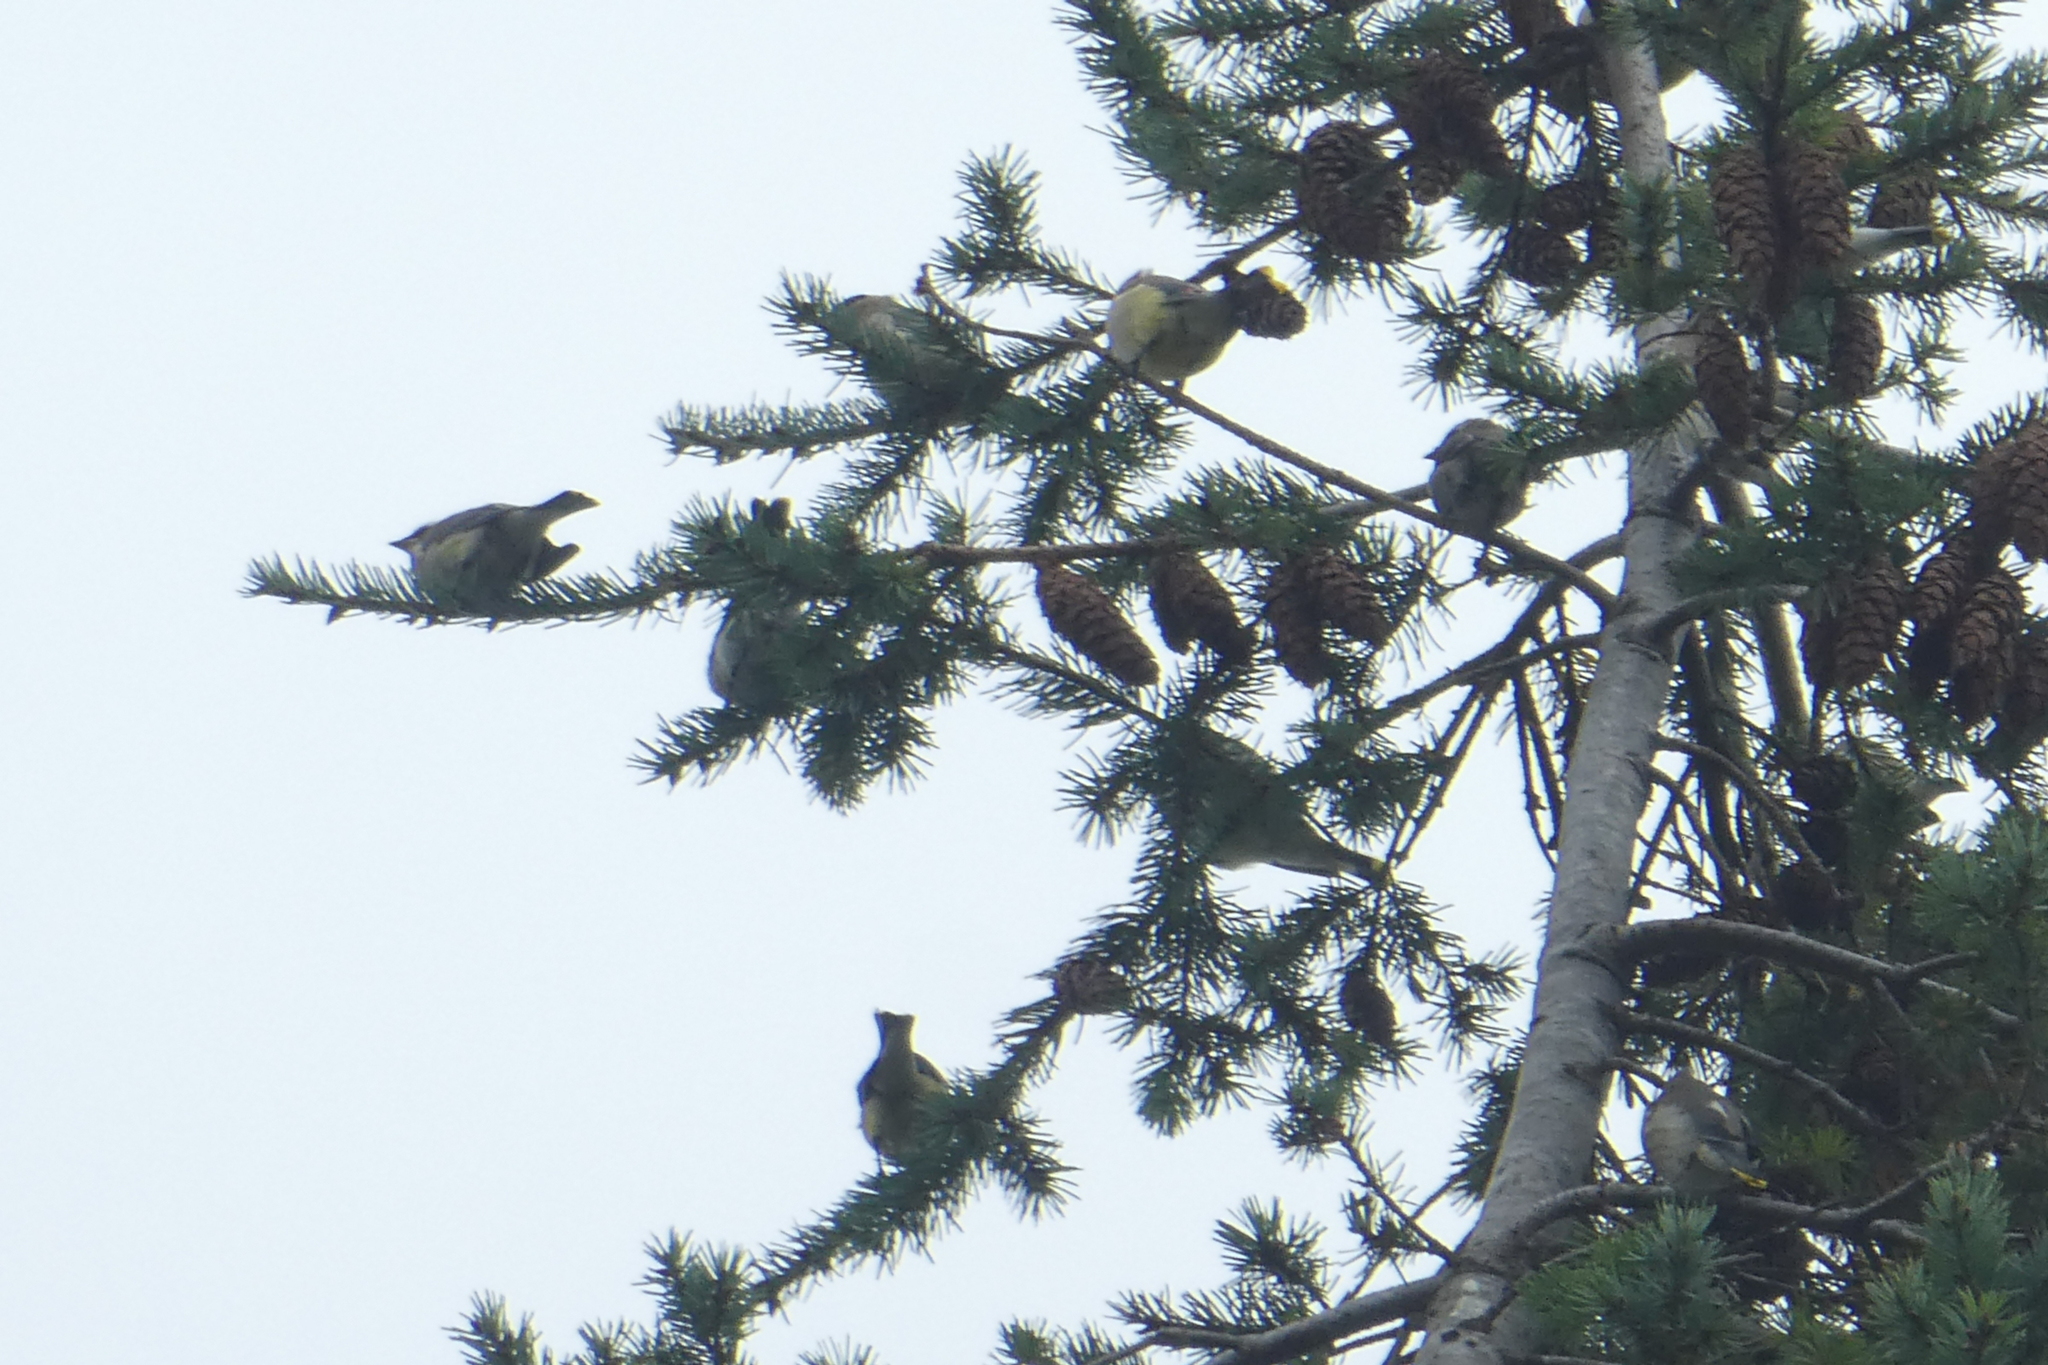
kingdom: Animalia
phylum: Chordata
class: Aves
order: Passeriformes
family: Bombycillidae
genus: Bombycilla
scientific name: Bombycilla cedrorum
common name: Cedar waxwing
